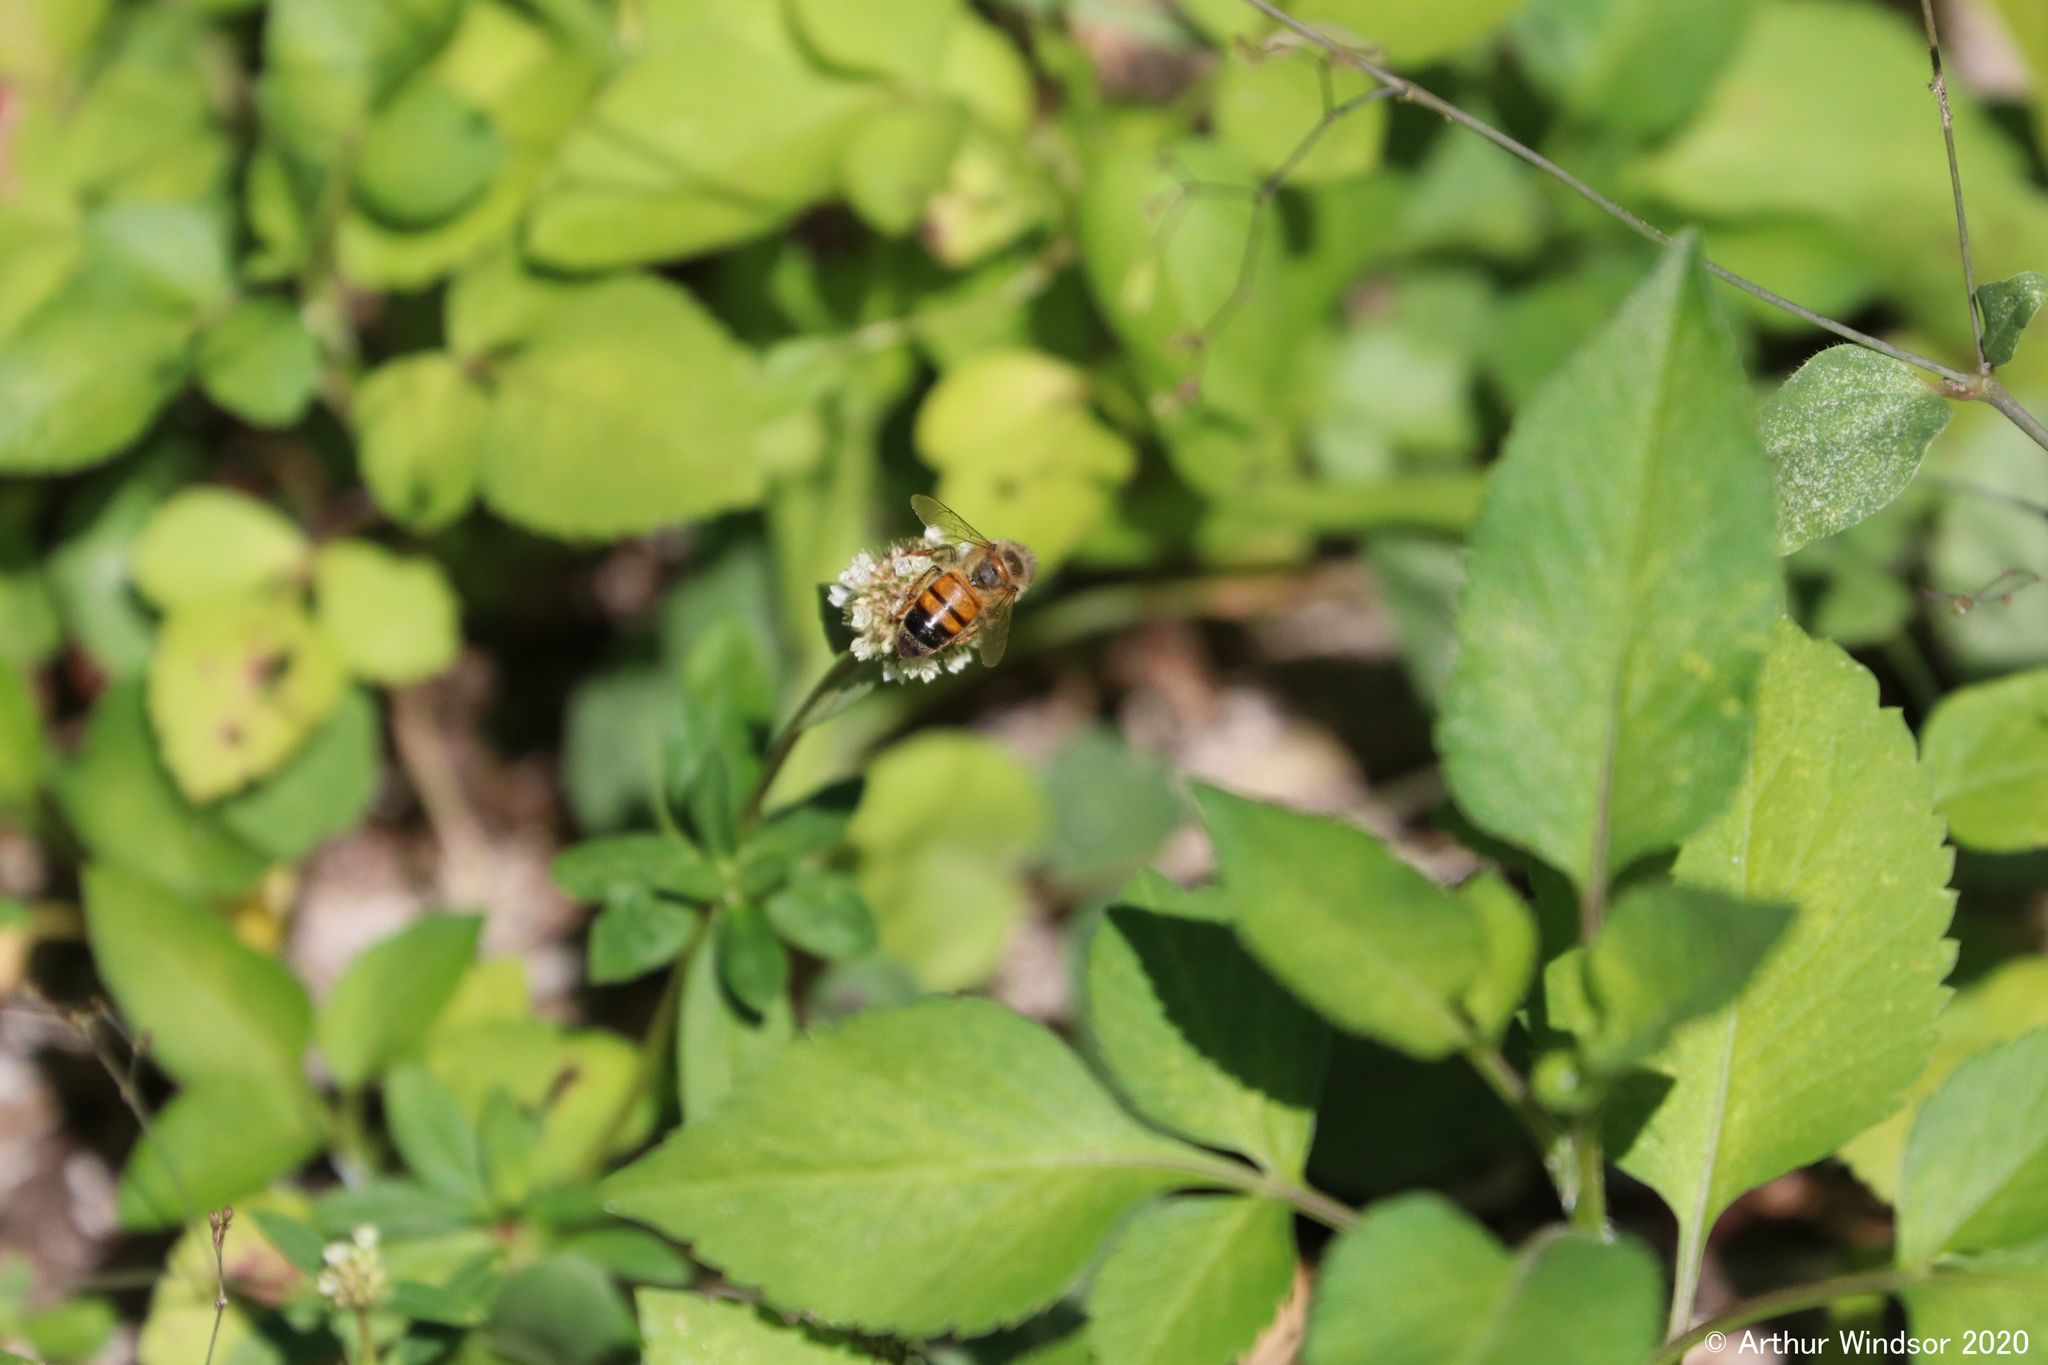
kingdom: Animalia
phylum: Arthropoda
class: Insecta
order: Hymenoptera
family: Apidae
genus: Apis
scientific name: Apis mellifera
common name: Honey bee
